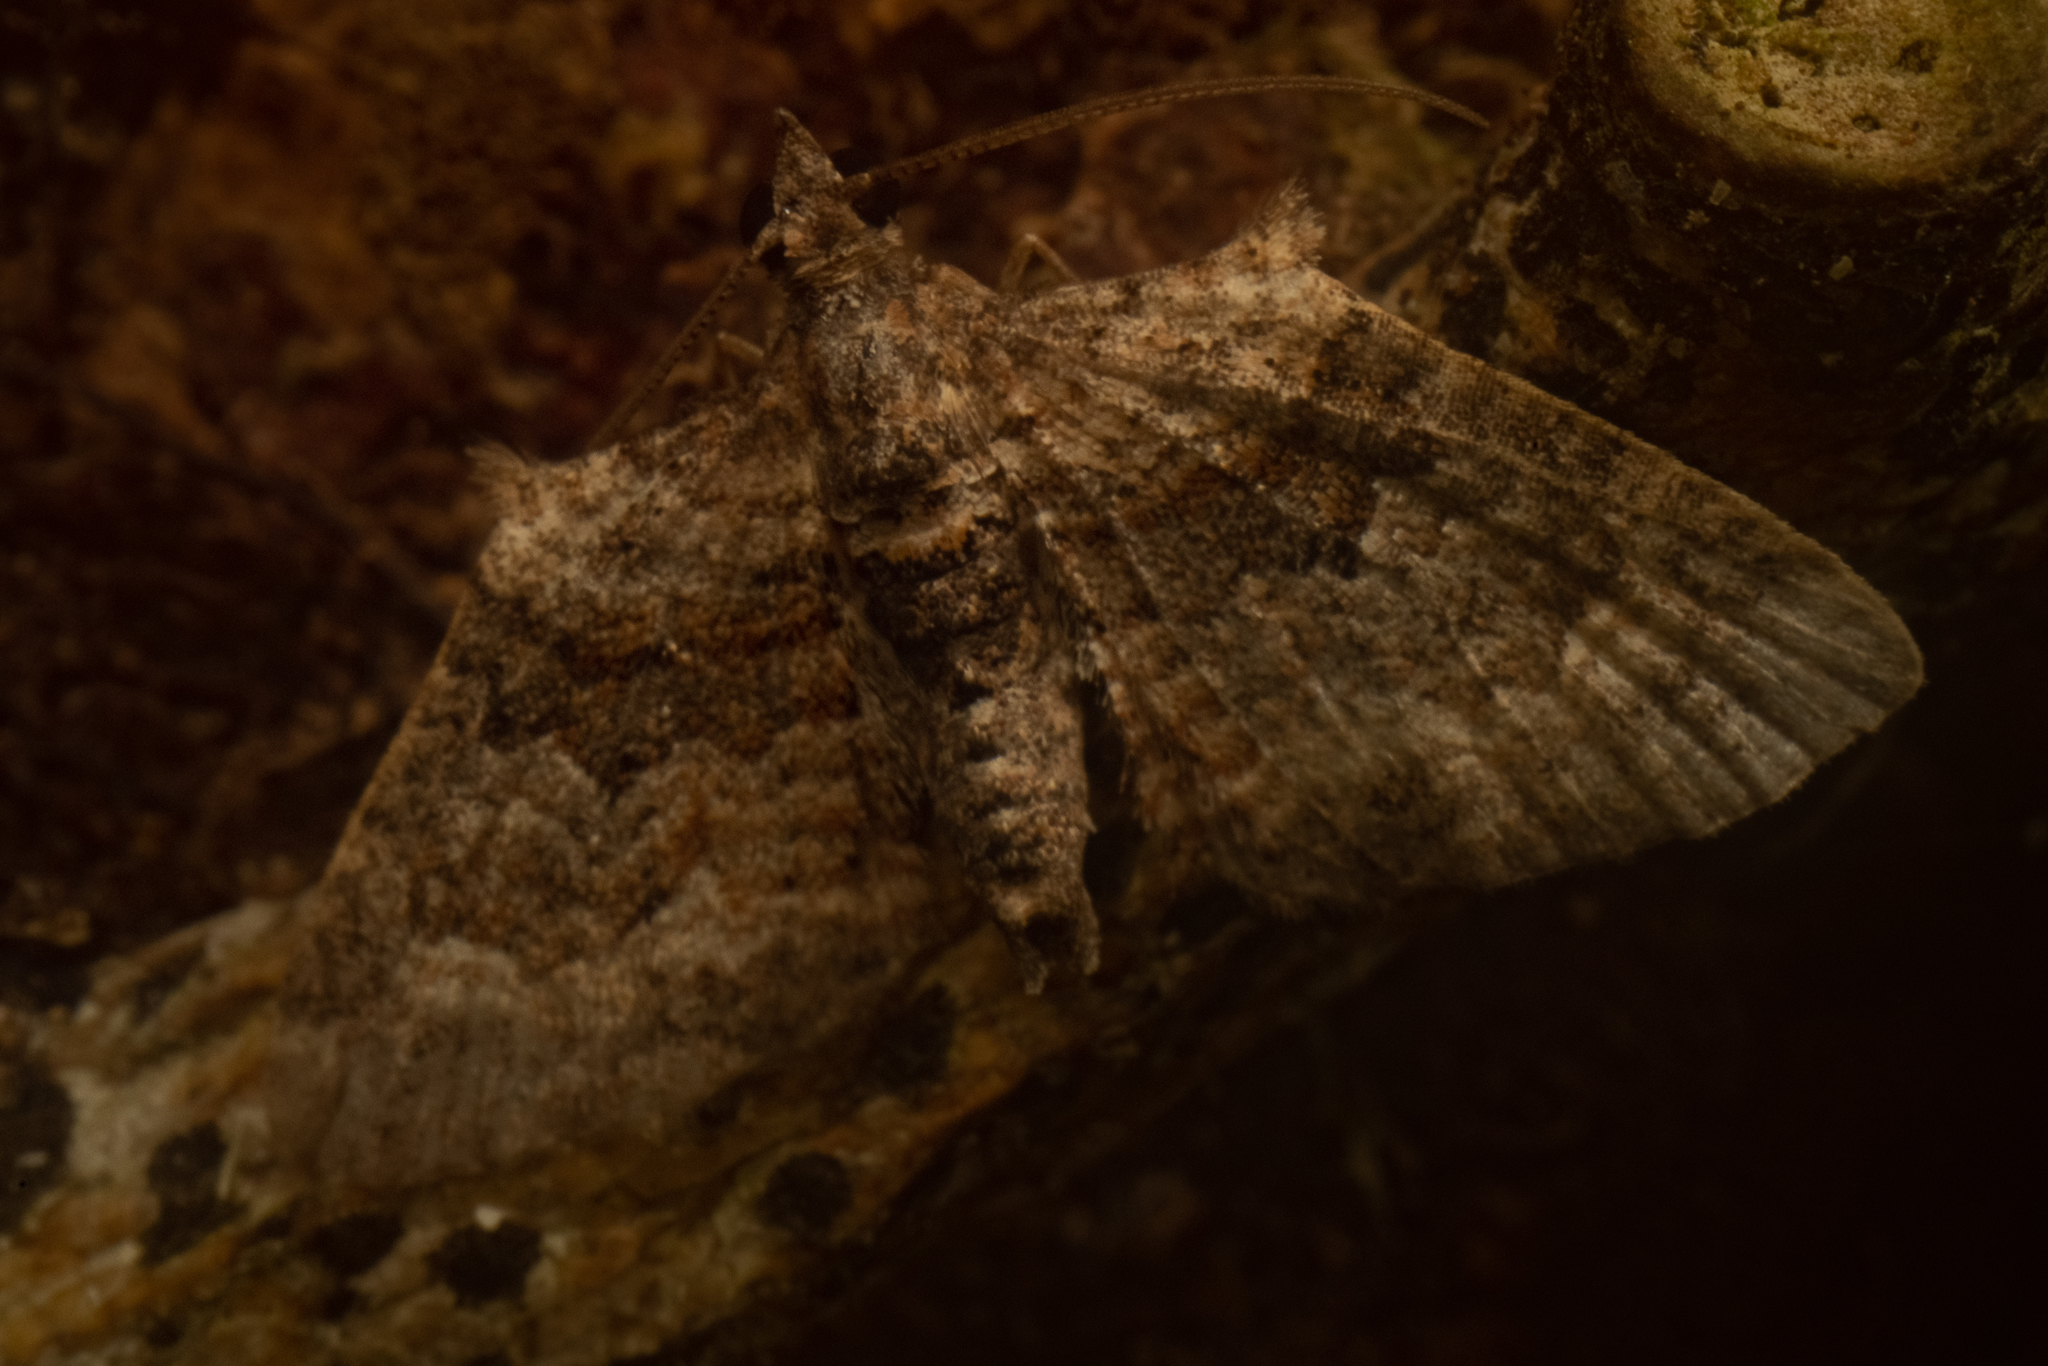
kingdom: Animalia
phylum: Arthropoda
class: Insecta
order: Lepidoptera
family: Geometridae
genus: Phrissogonus
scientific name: Phrissogonus laticostata
